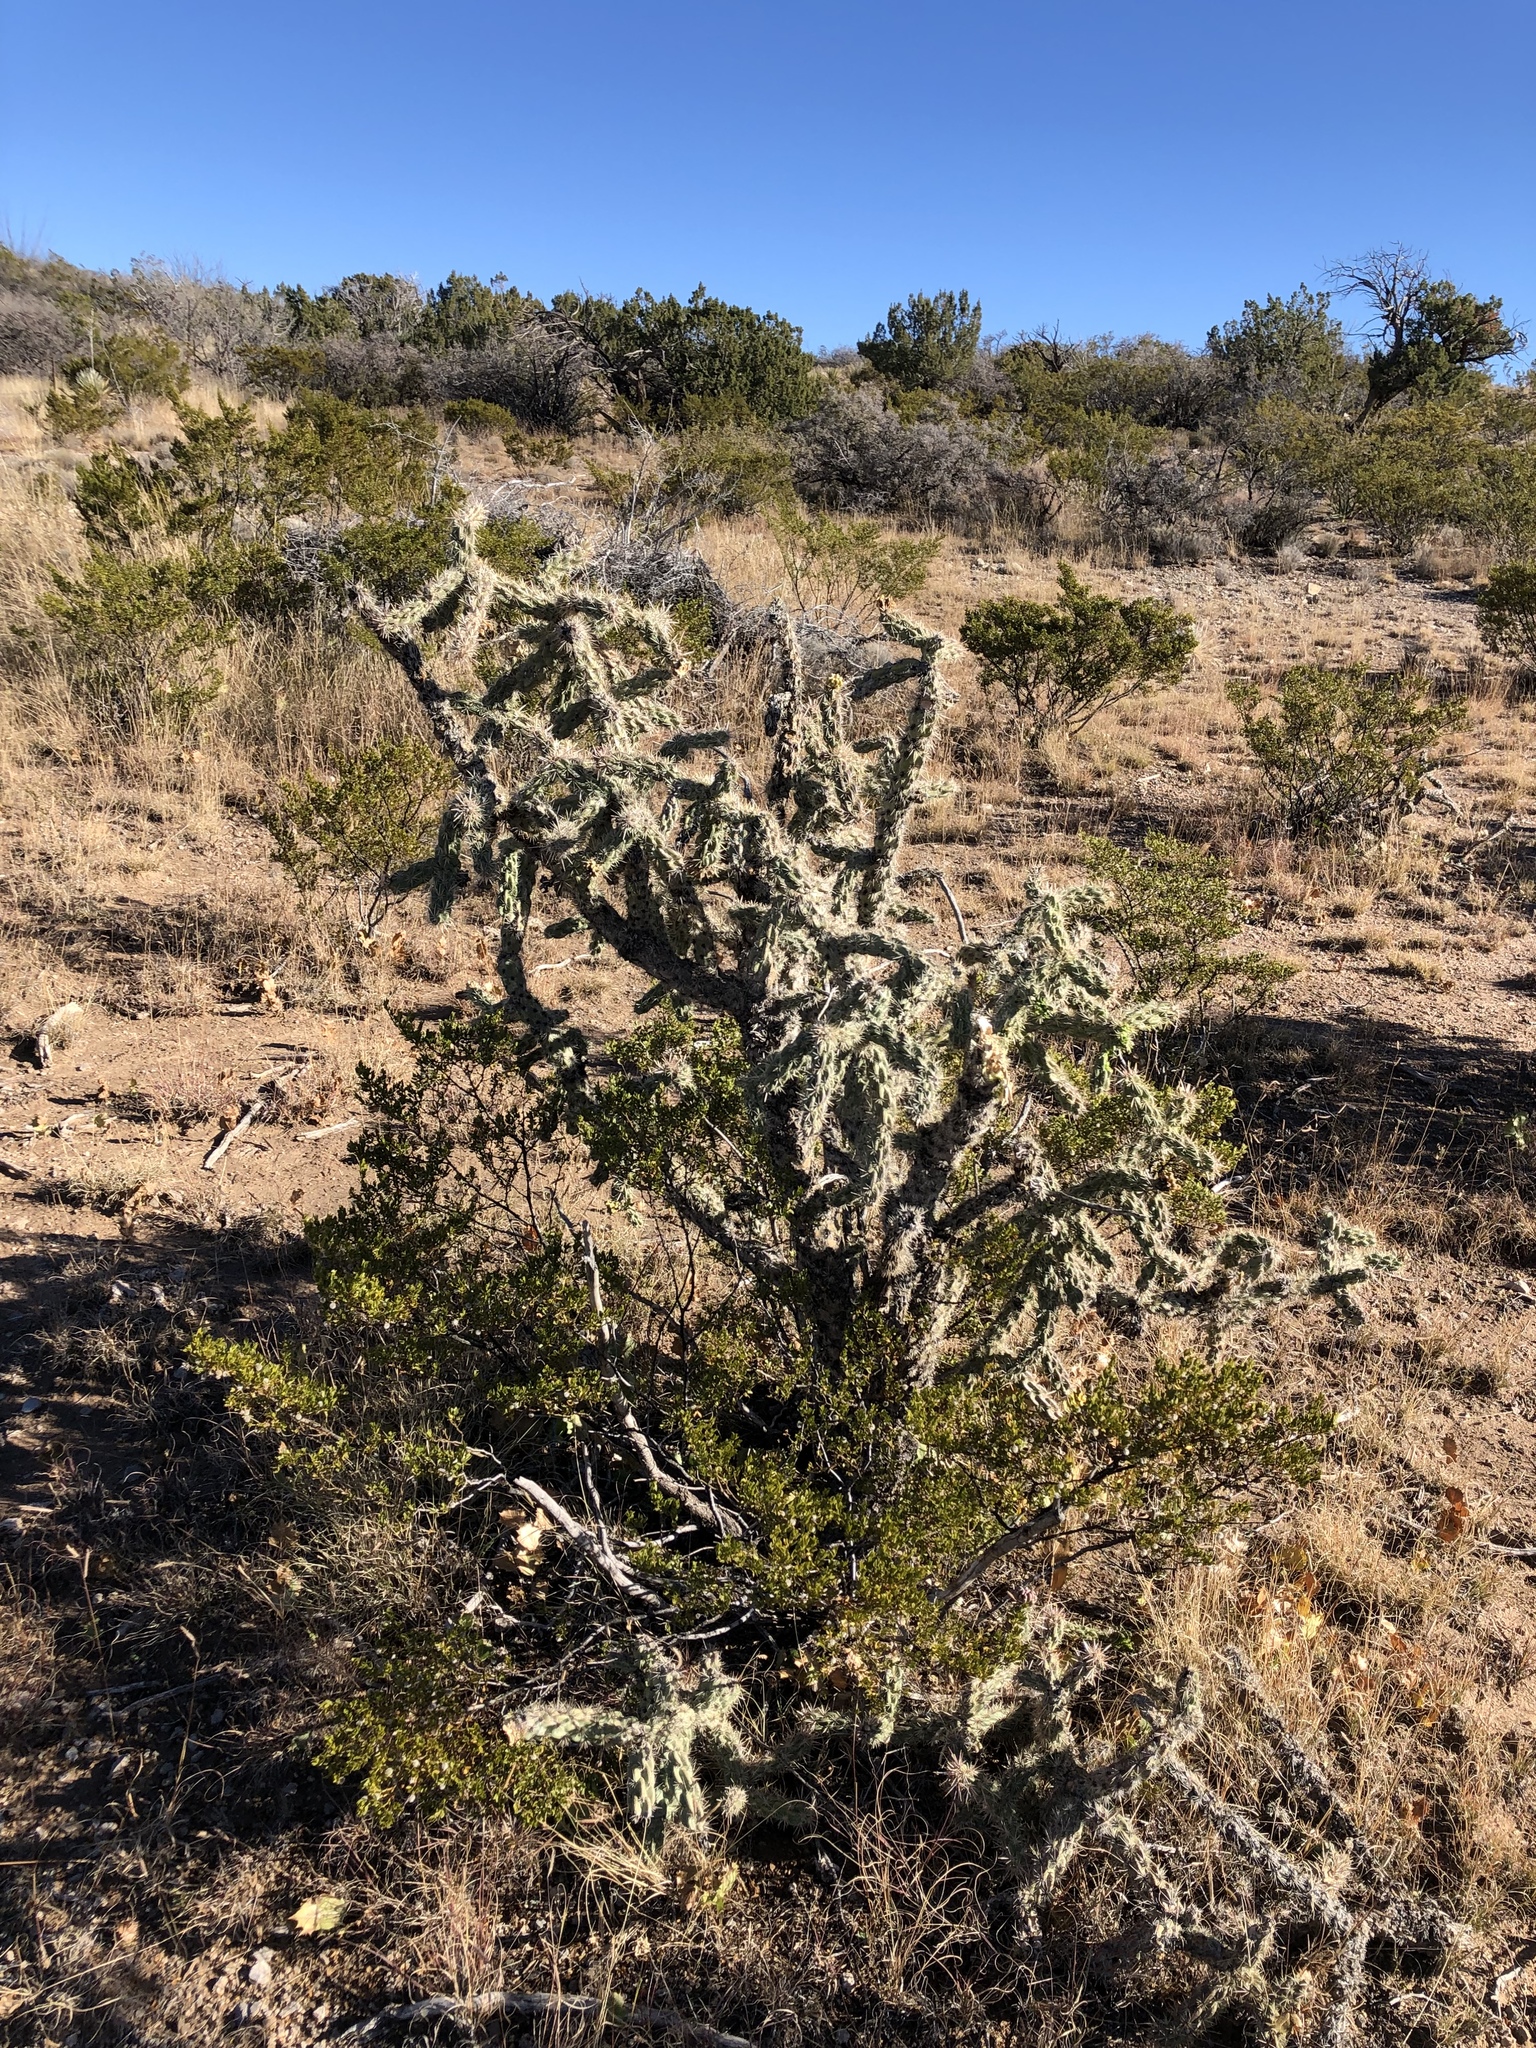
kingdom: Plantae
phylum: Tracheophyta
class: Magnoliopsida
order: Caryophyllales
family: Cactaceae
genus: Cylindropuntia
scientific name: Cylindropuntia imbricata
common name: Candelabrum cactus
